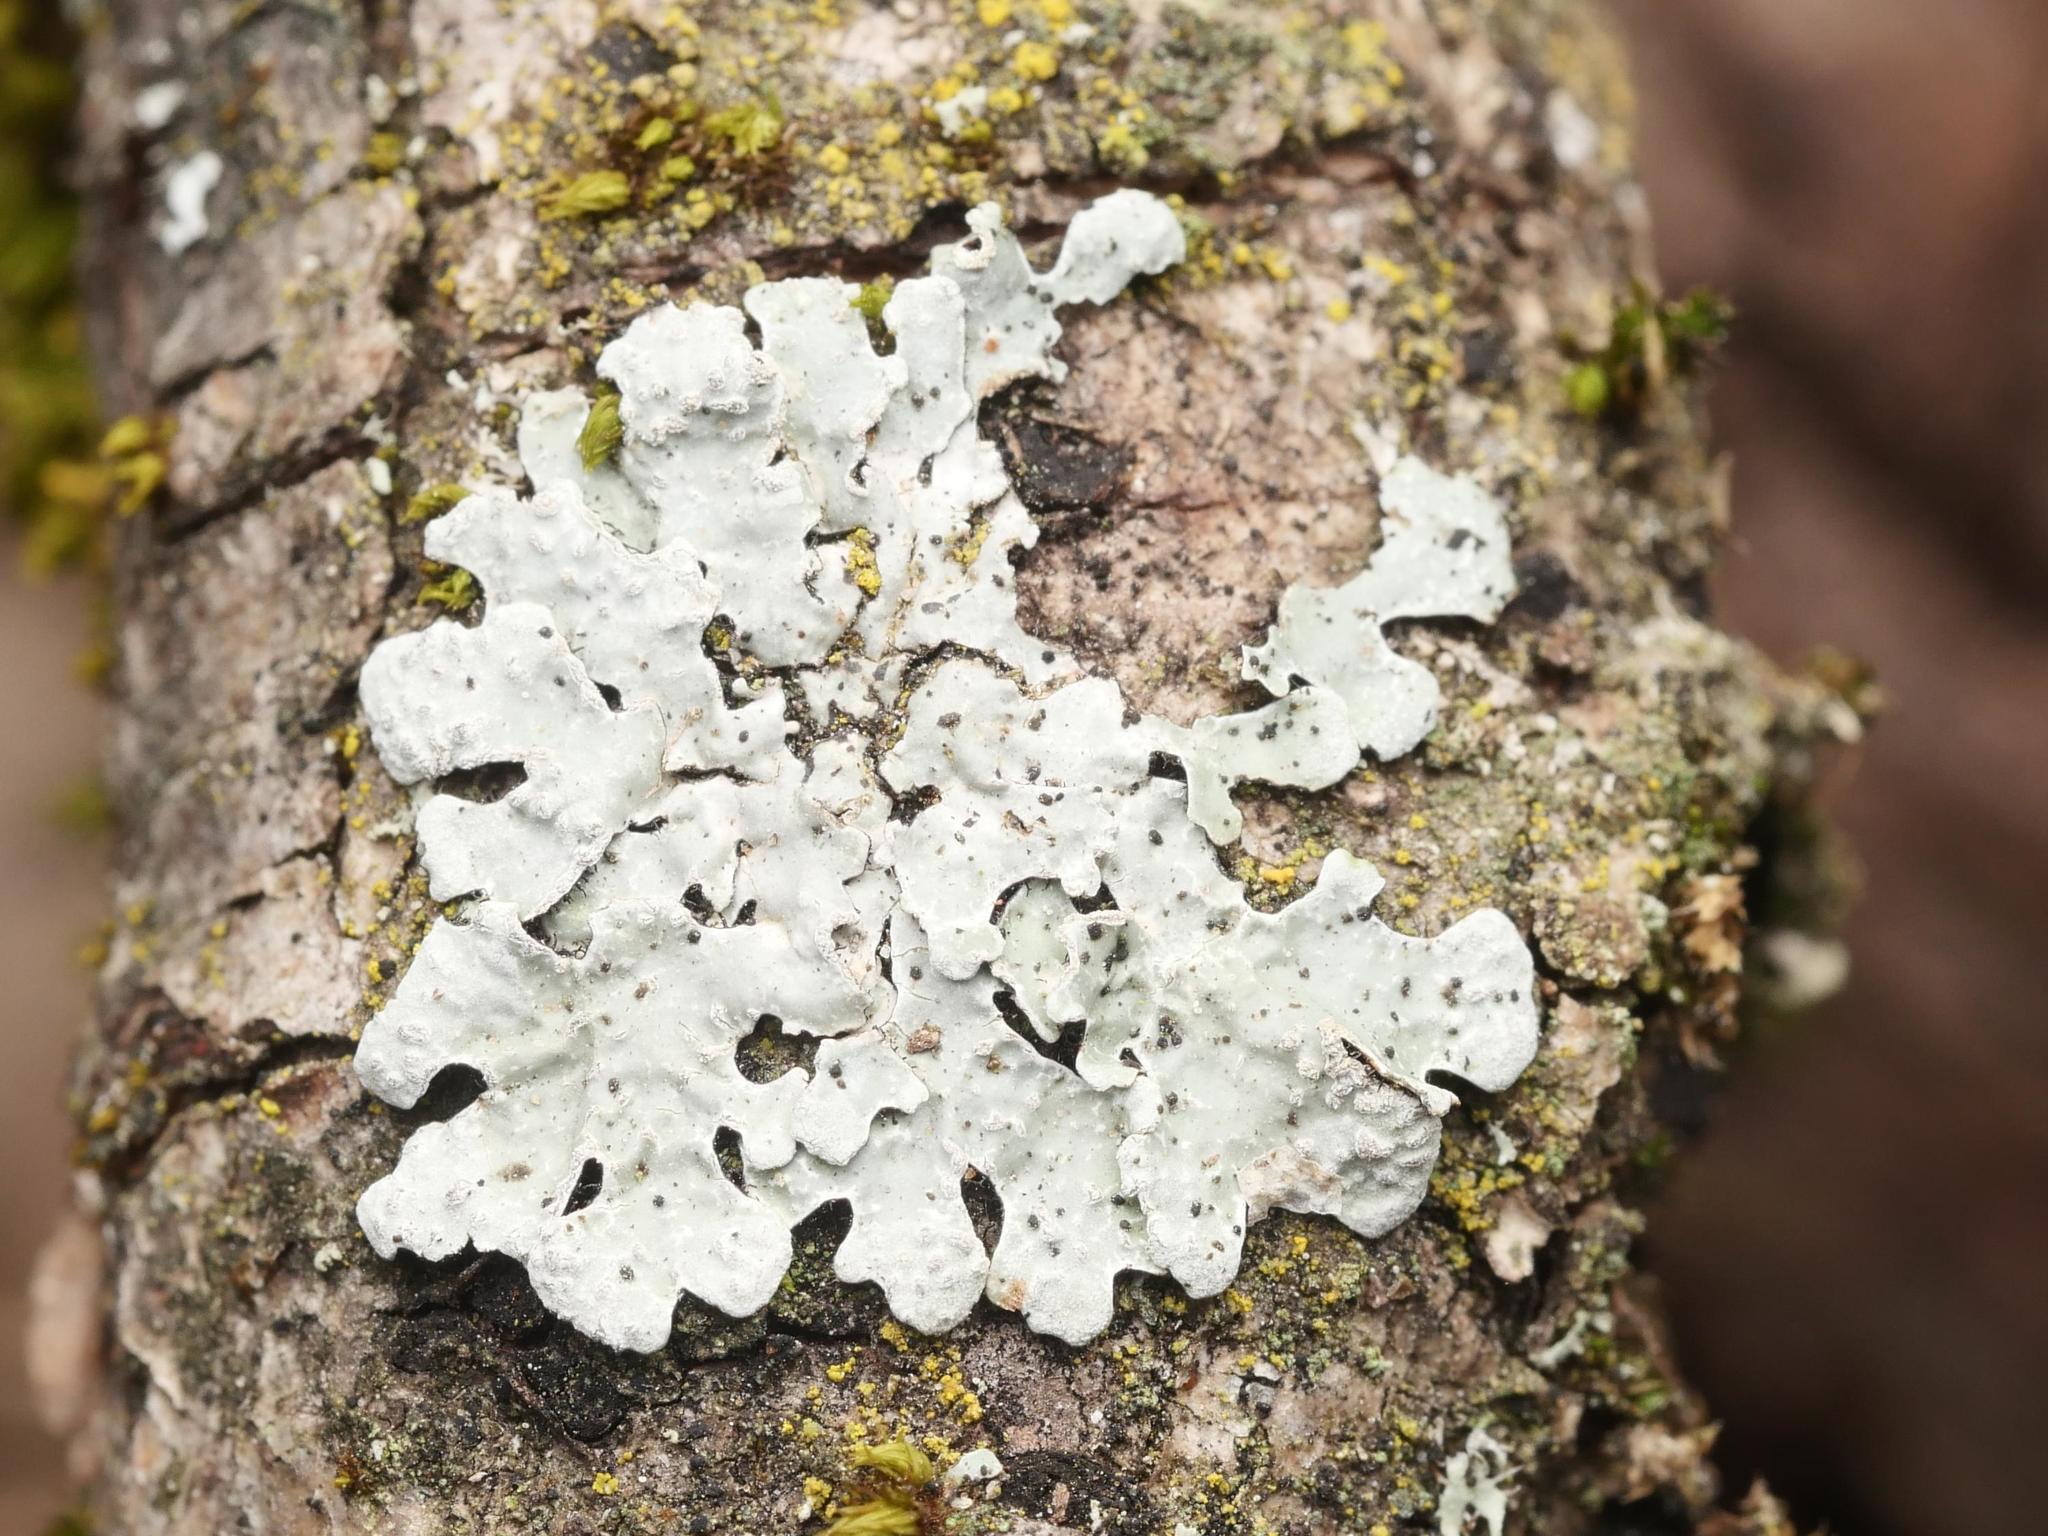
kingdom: Fungi
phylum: Ascomycota
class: Lecanoromycetes
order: Lecanorales
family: Parmeliaceae
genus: Parmelia
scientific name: Parmelia sulcata
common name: Netted shield lichen
